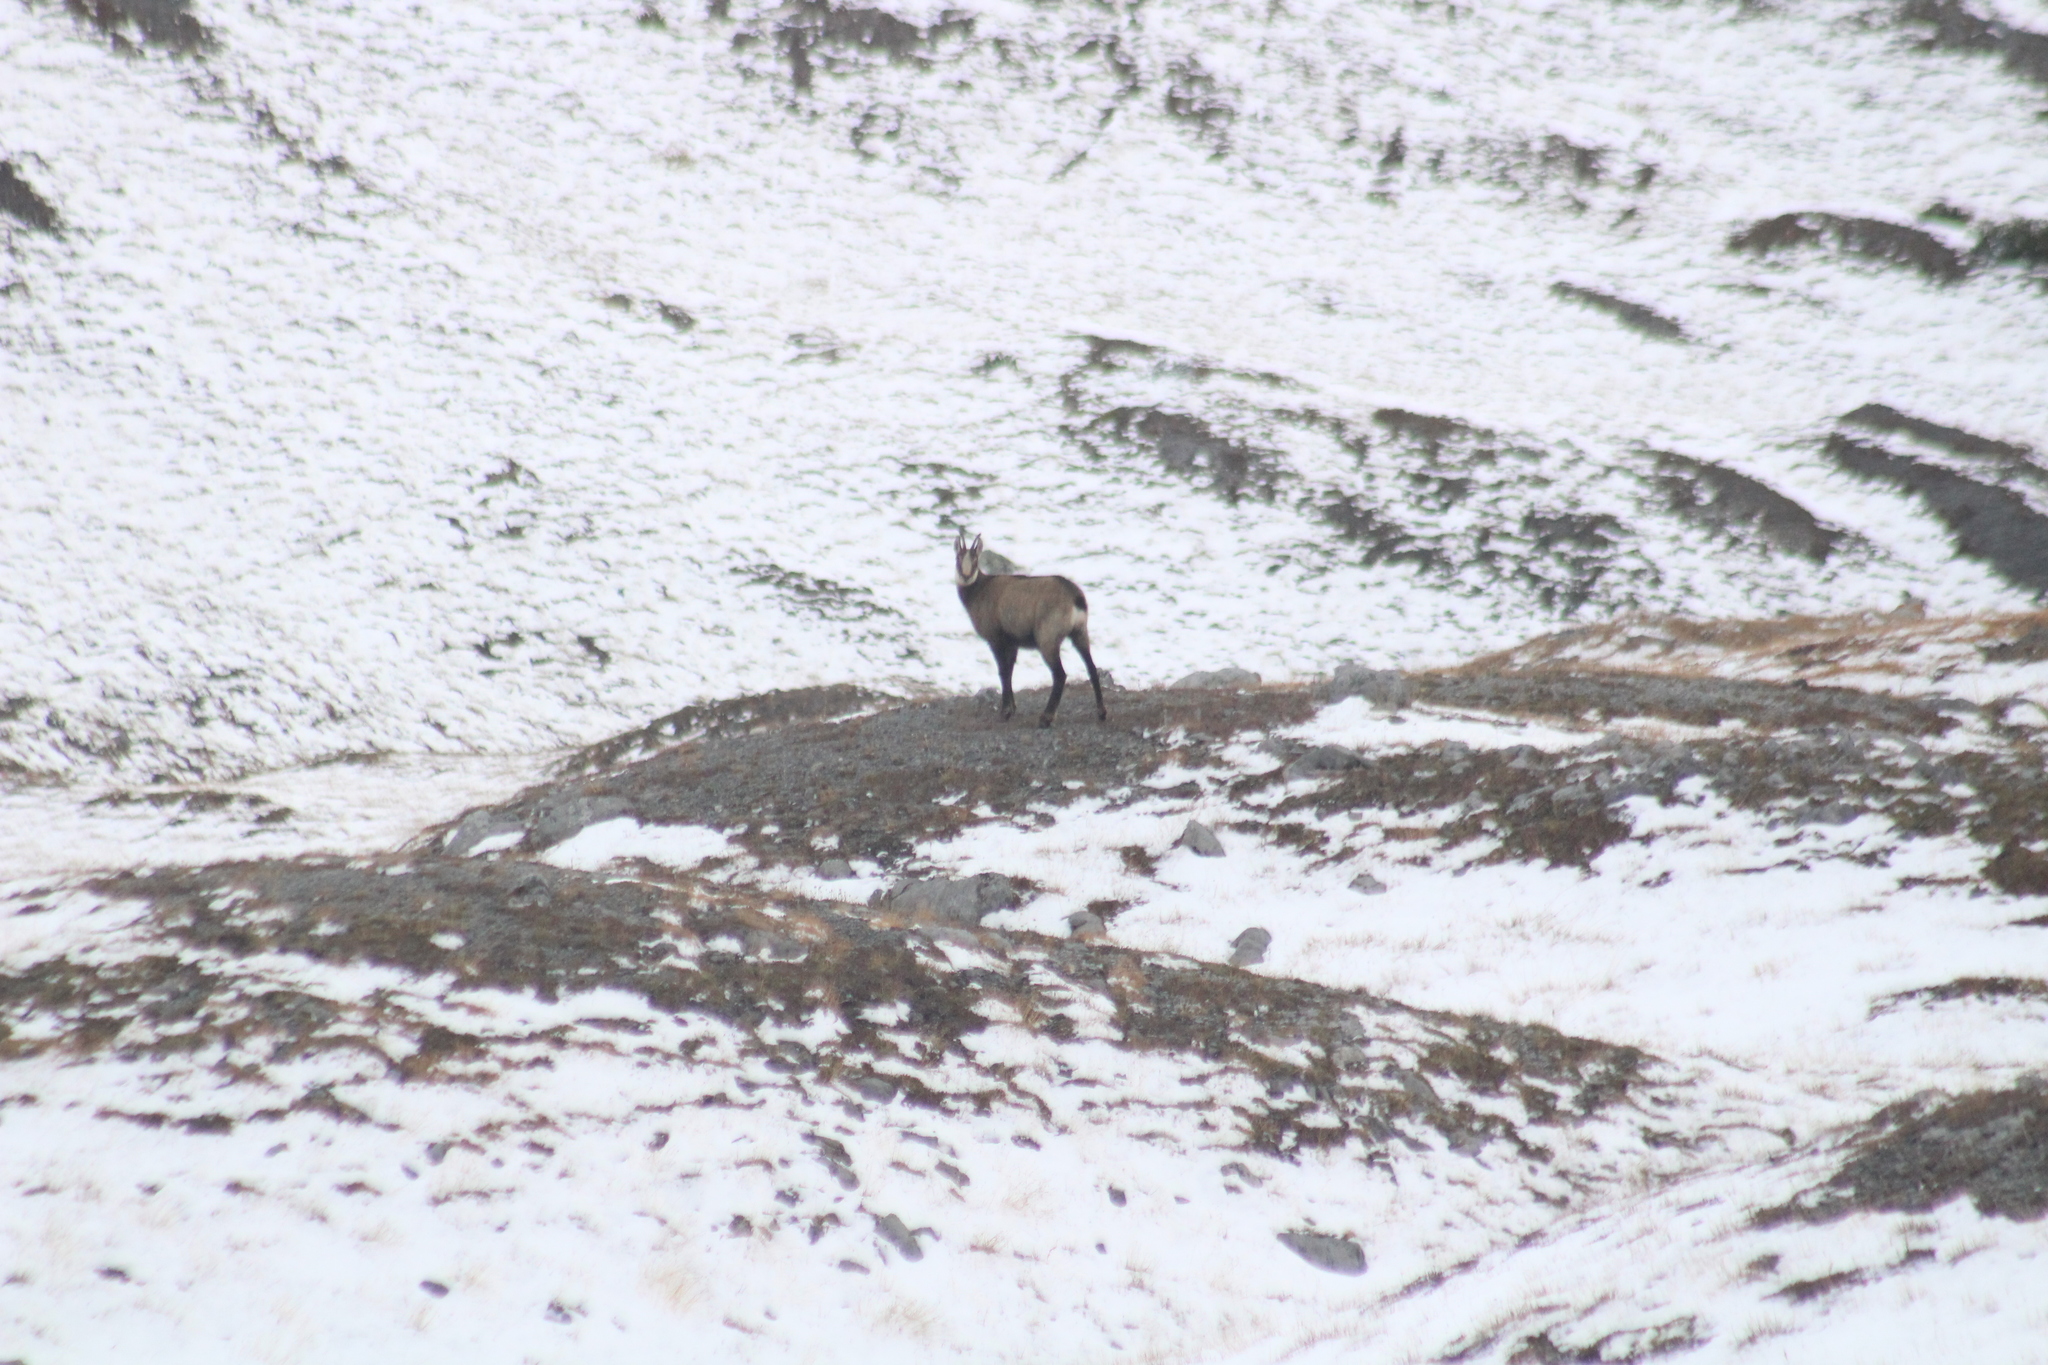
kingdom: Animalia
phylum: Chordata
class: Mammalia
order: Artiodactyla
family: Bovidae
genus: Rupicapra
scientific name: Rupicapra rupicapra
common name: Chamois
